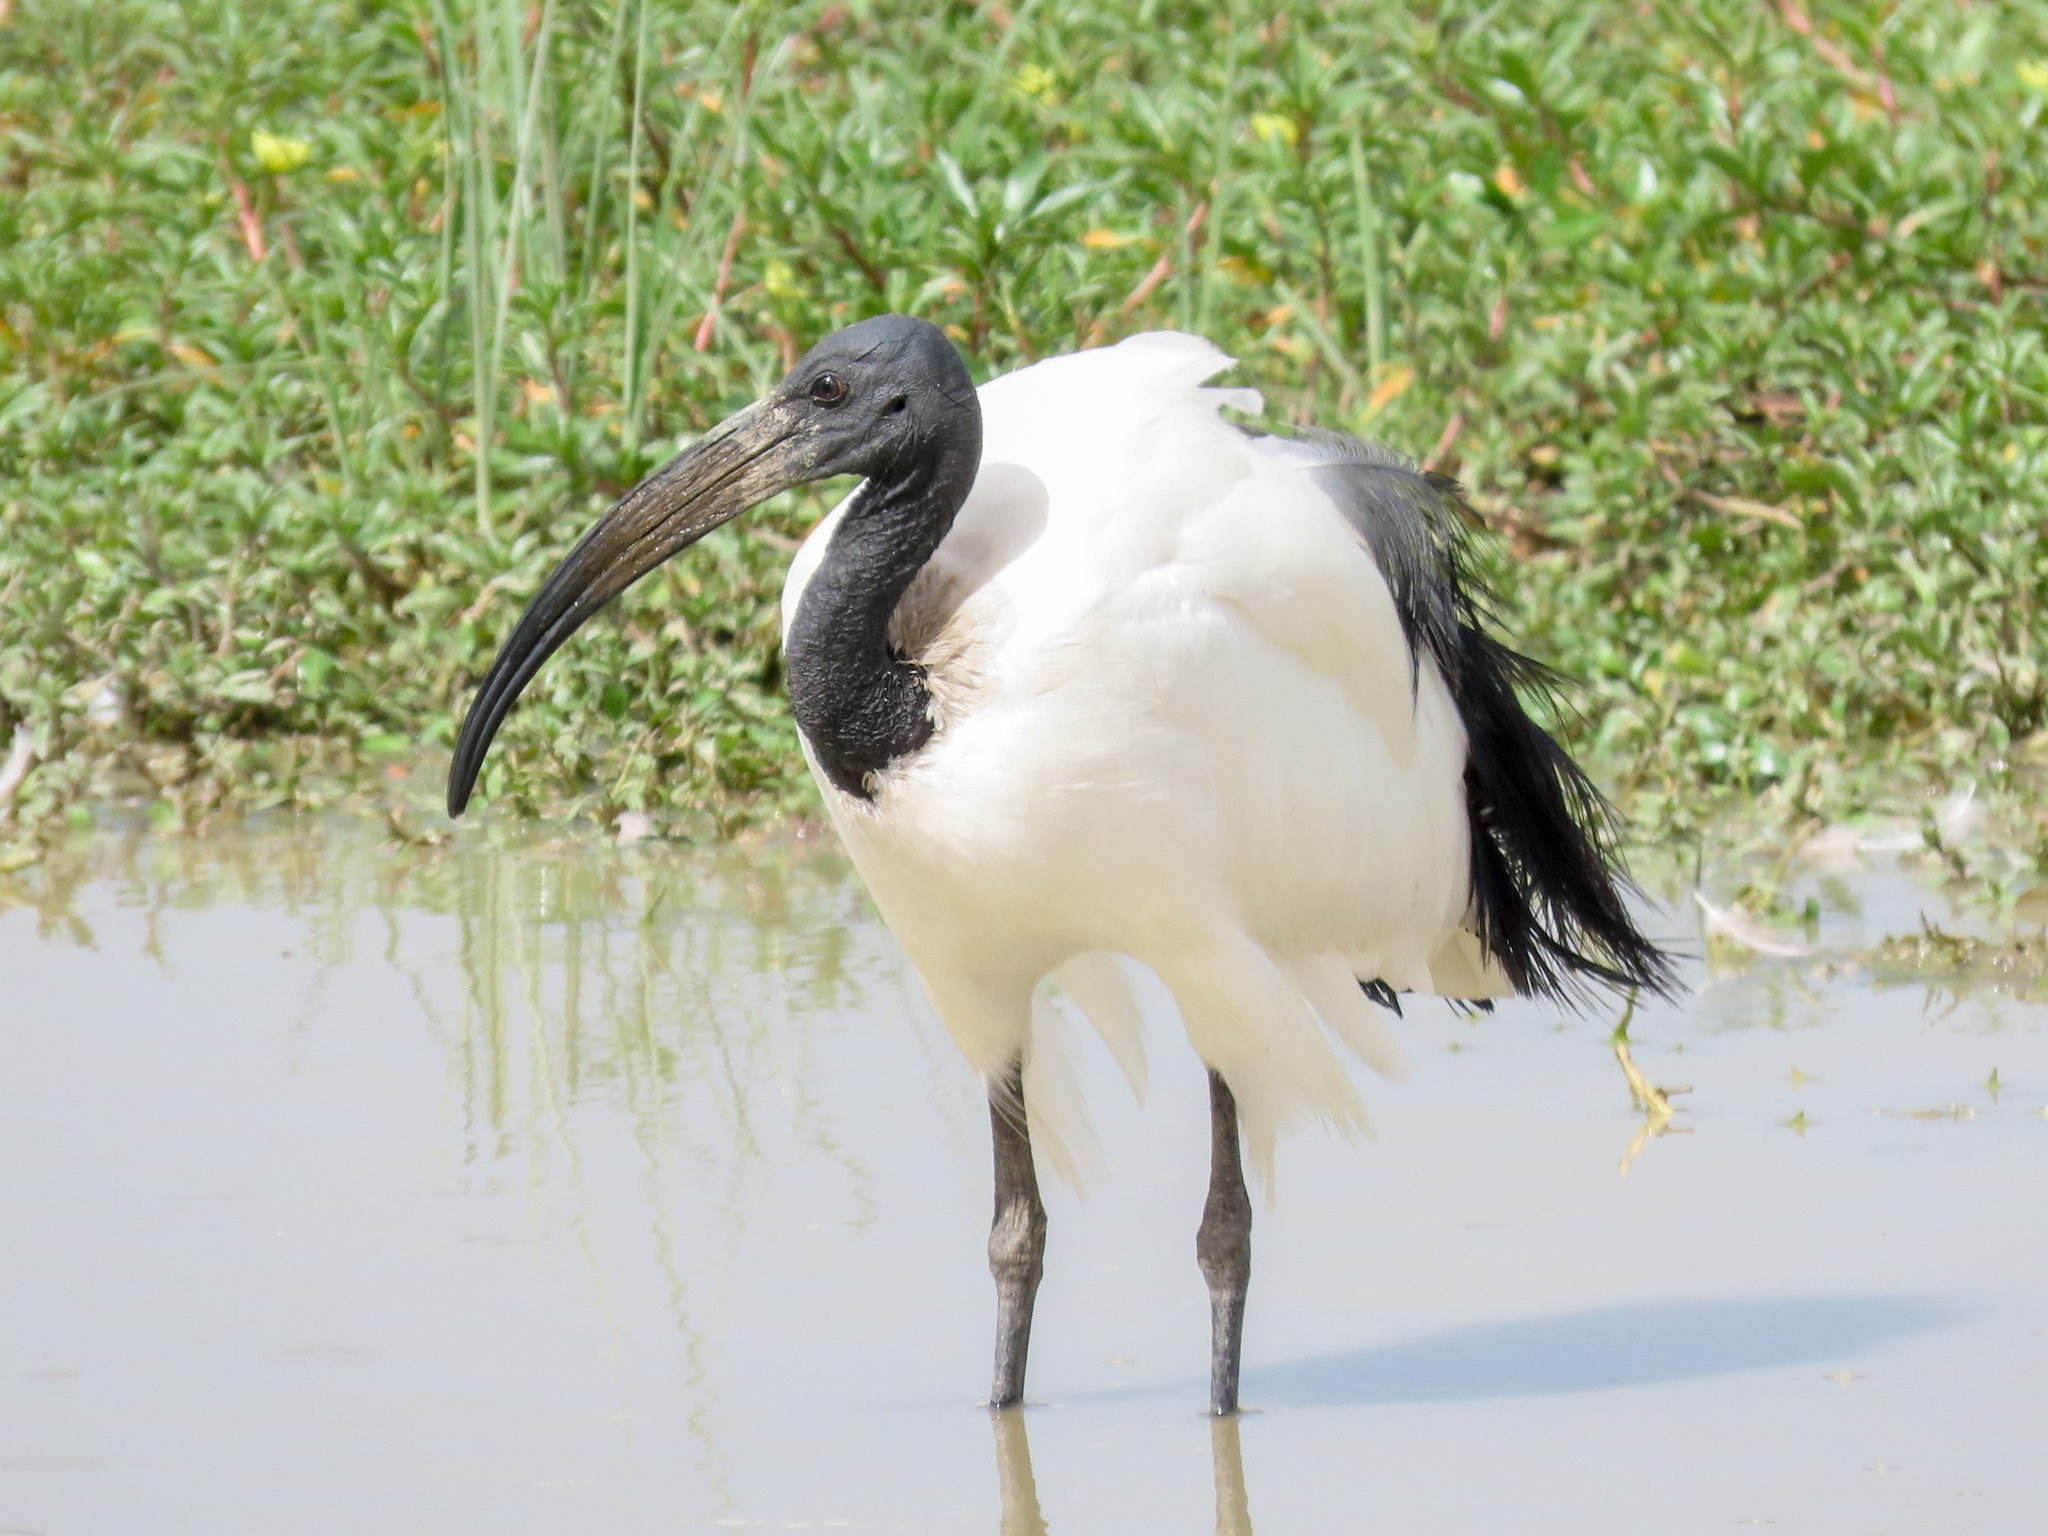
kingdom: Animalia
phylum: Chordata
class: Aves
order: Pelecaniformes
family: Threskiornithidae
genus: Threskiornis
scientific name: Threskiornis aethiopicus
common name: Sacred ibis
